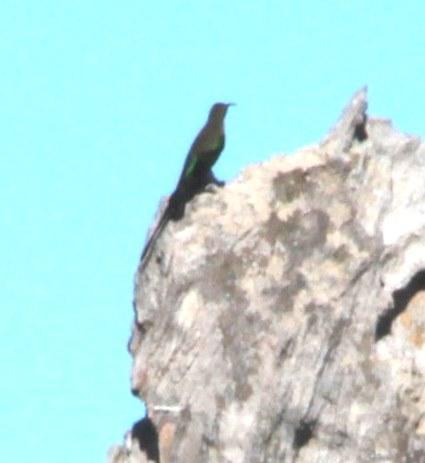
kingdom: Animalia
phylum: Chordata
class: Aves
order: Passeriformes
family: Nectariniidae
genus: Nectarinia
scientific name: Nectarinia famosa
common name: Malachite sunbird
